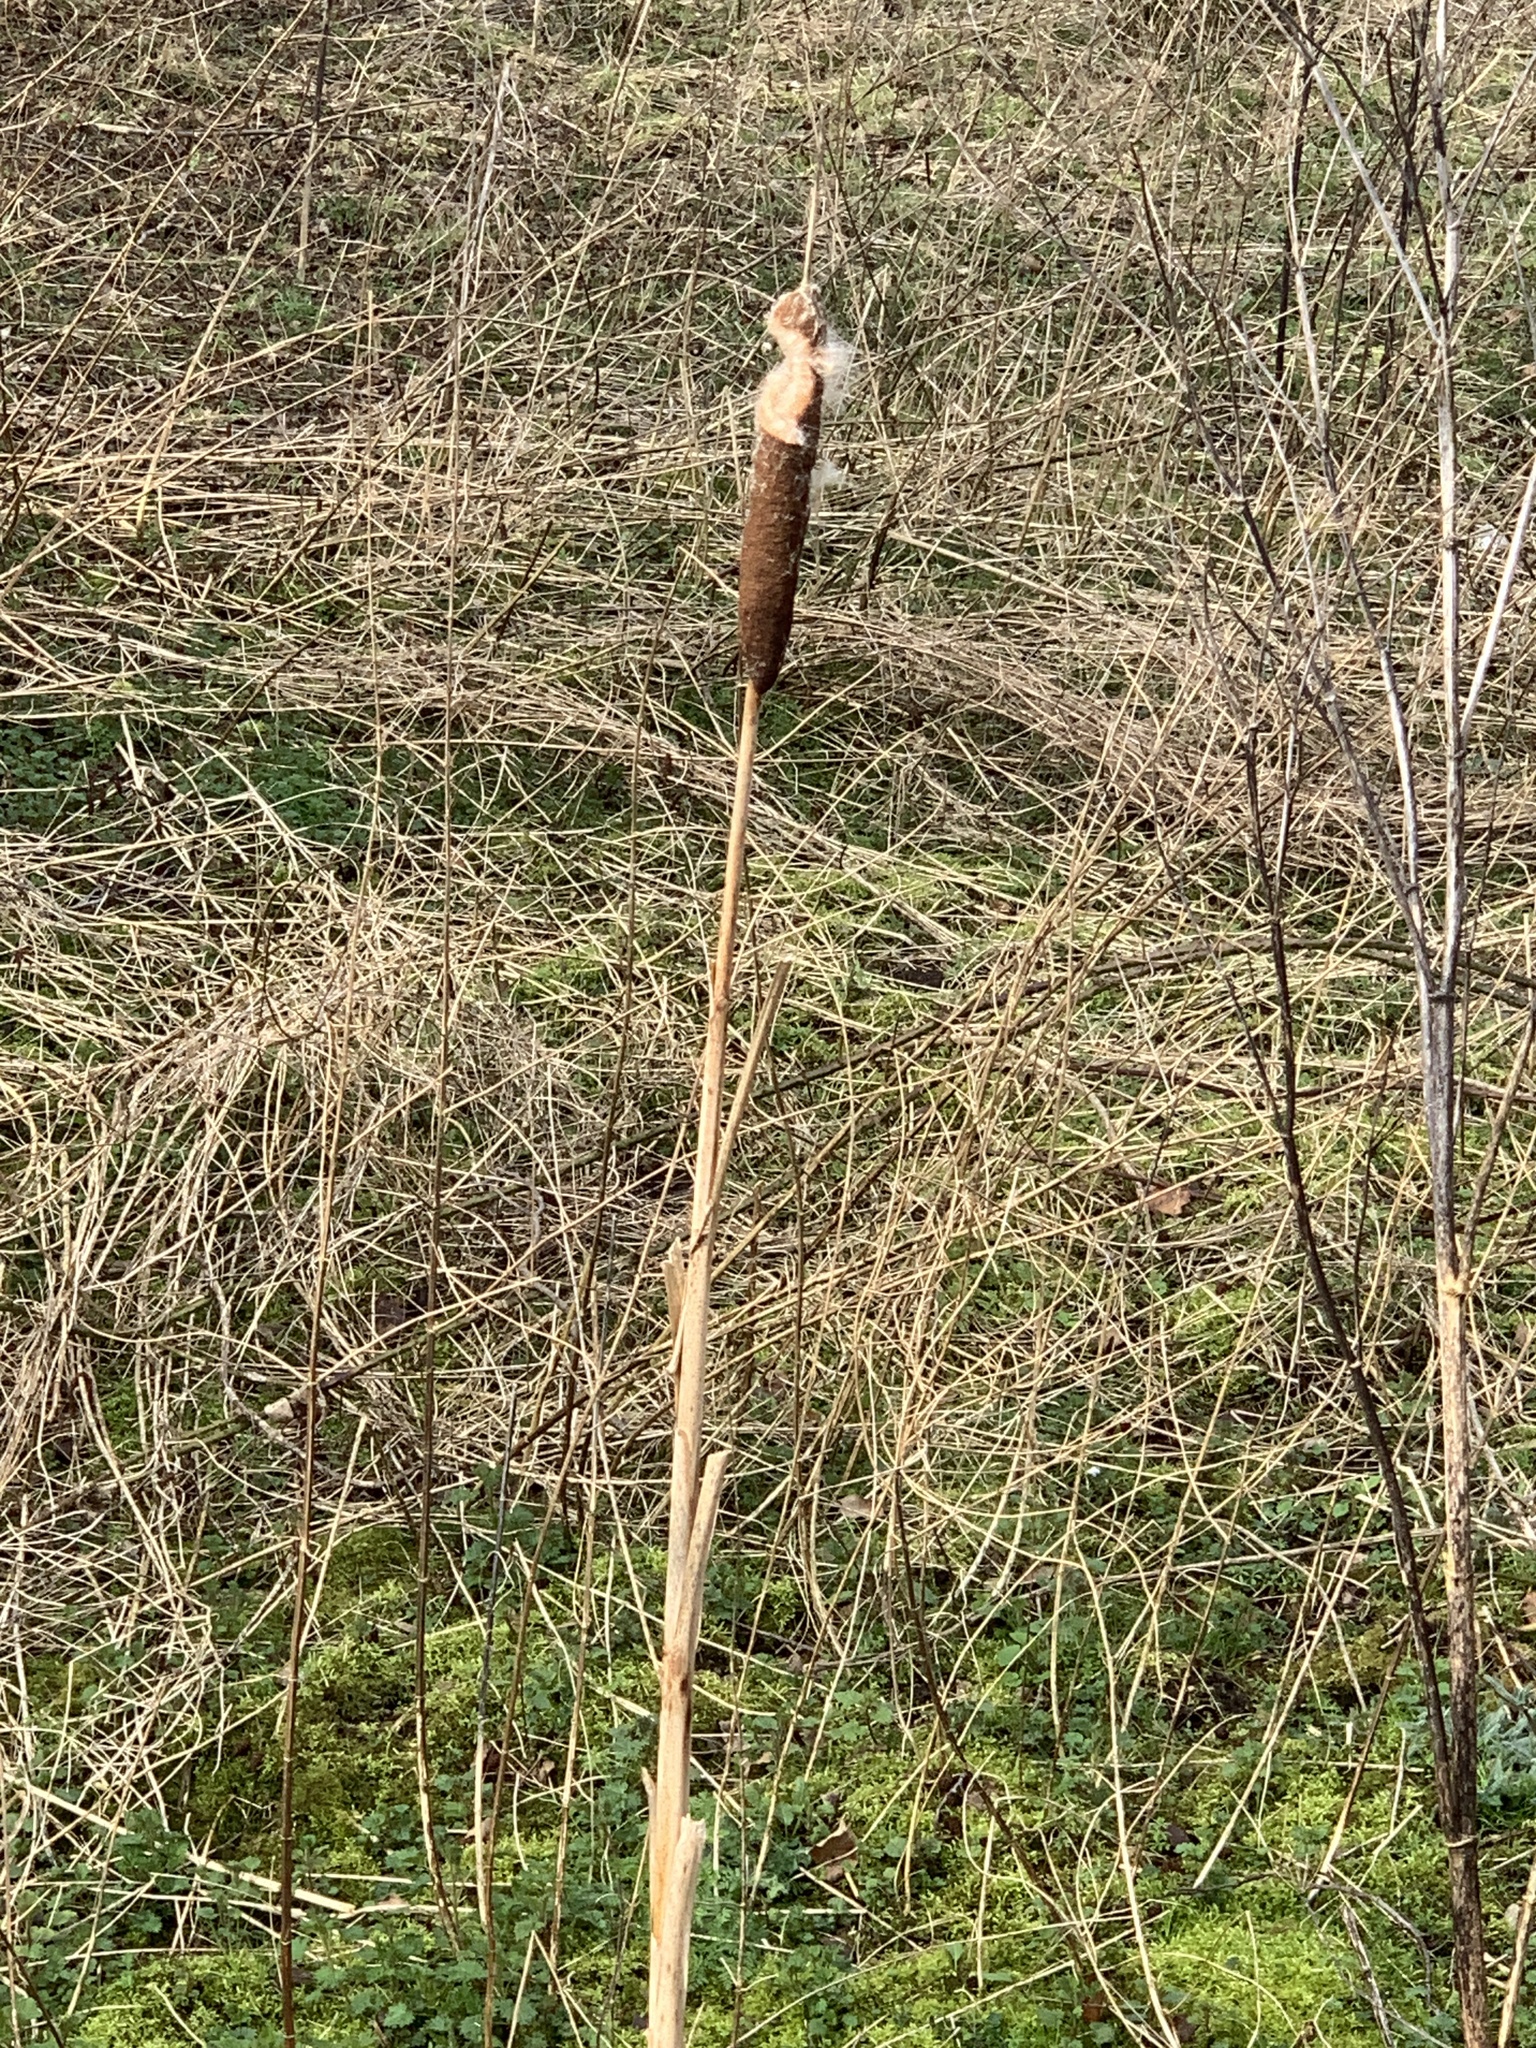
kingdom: Plantae
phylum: Tracheophyta
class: Liliopsida
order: Poales
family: Typhaceae
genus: Typha
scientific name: Typha latifolia
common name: Broadleaf cattail
